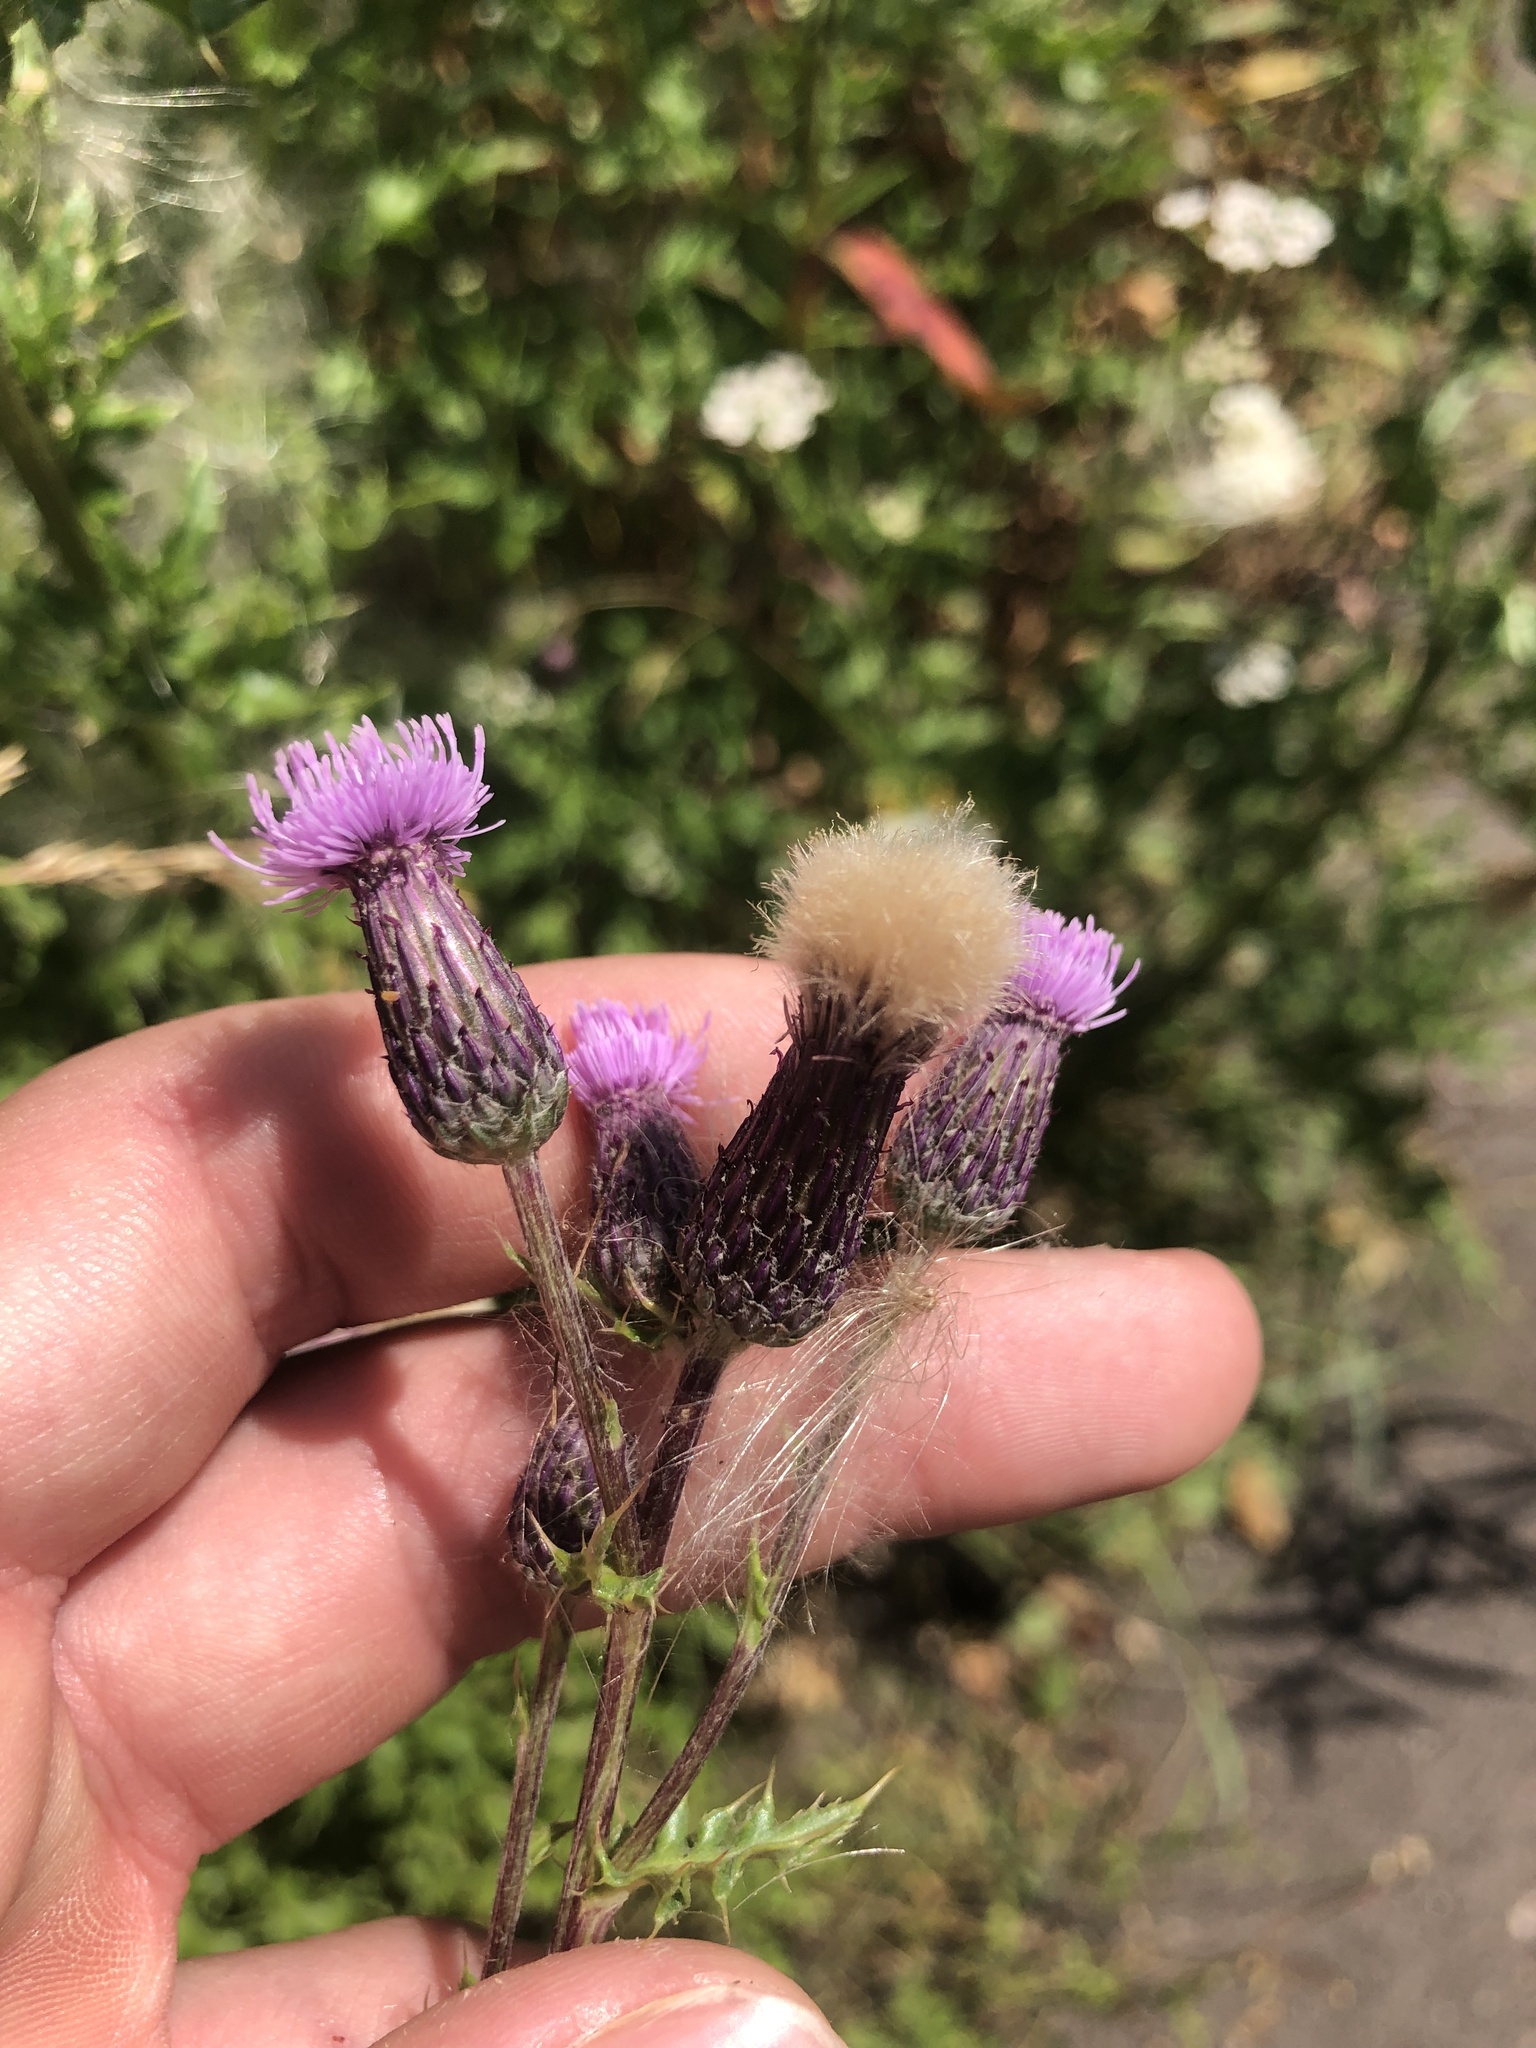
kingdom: Plantae
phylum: Tracheophyta
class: Magnoliopsida
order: Asterales
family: Asteraceae
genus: Cirsium
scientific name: Cirsium arvense
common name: Creeping thistle
